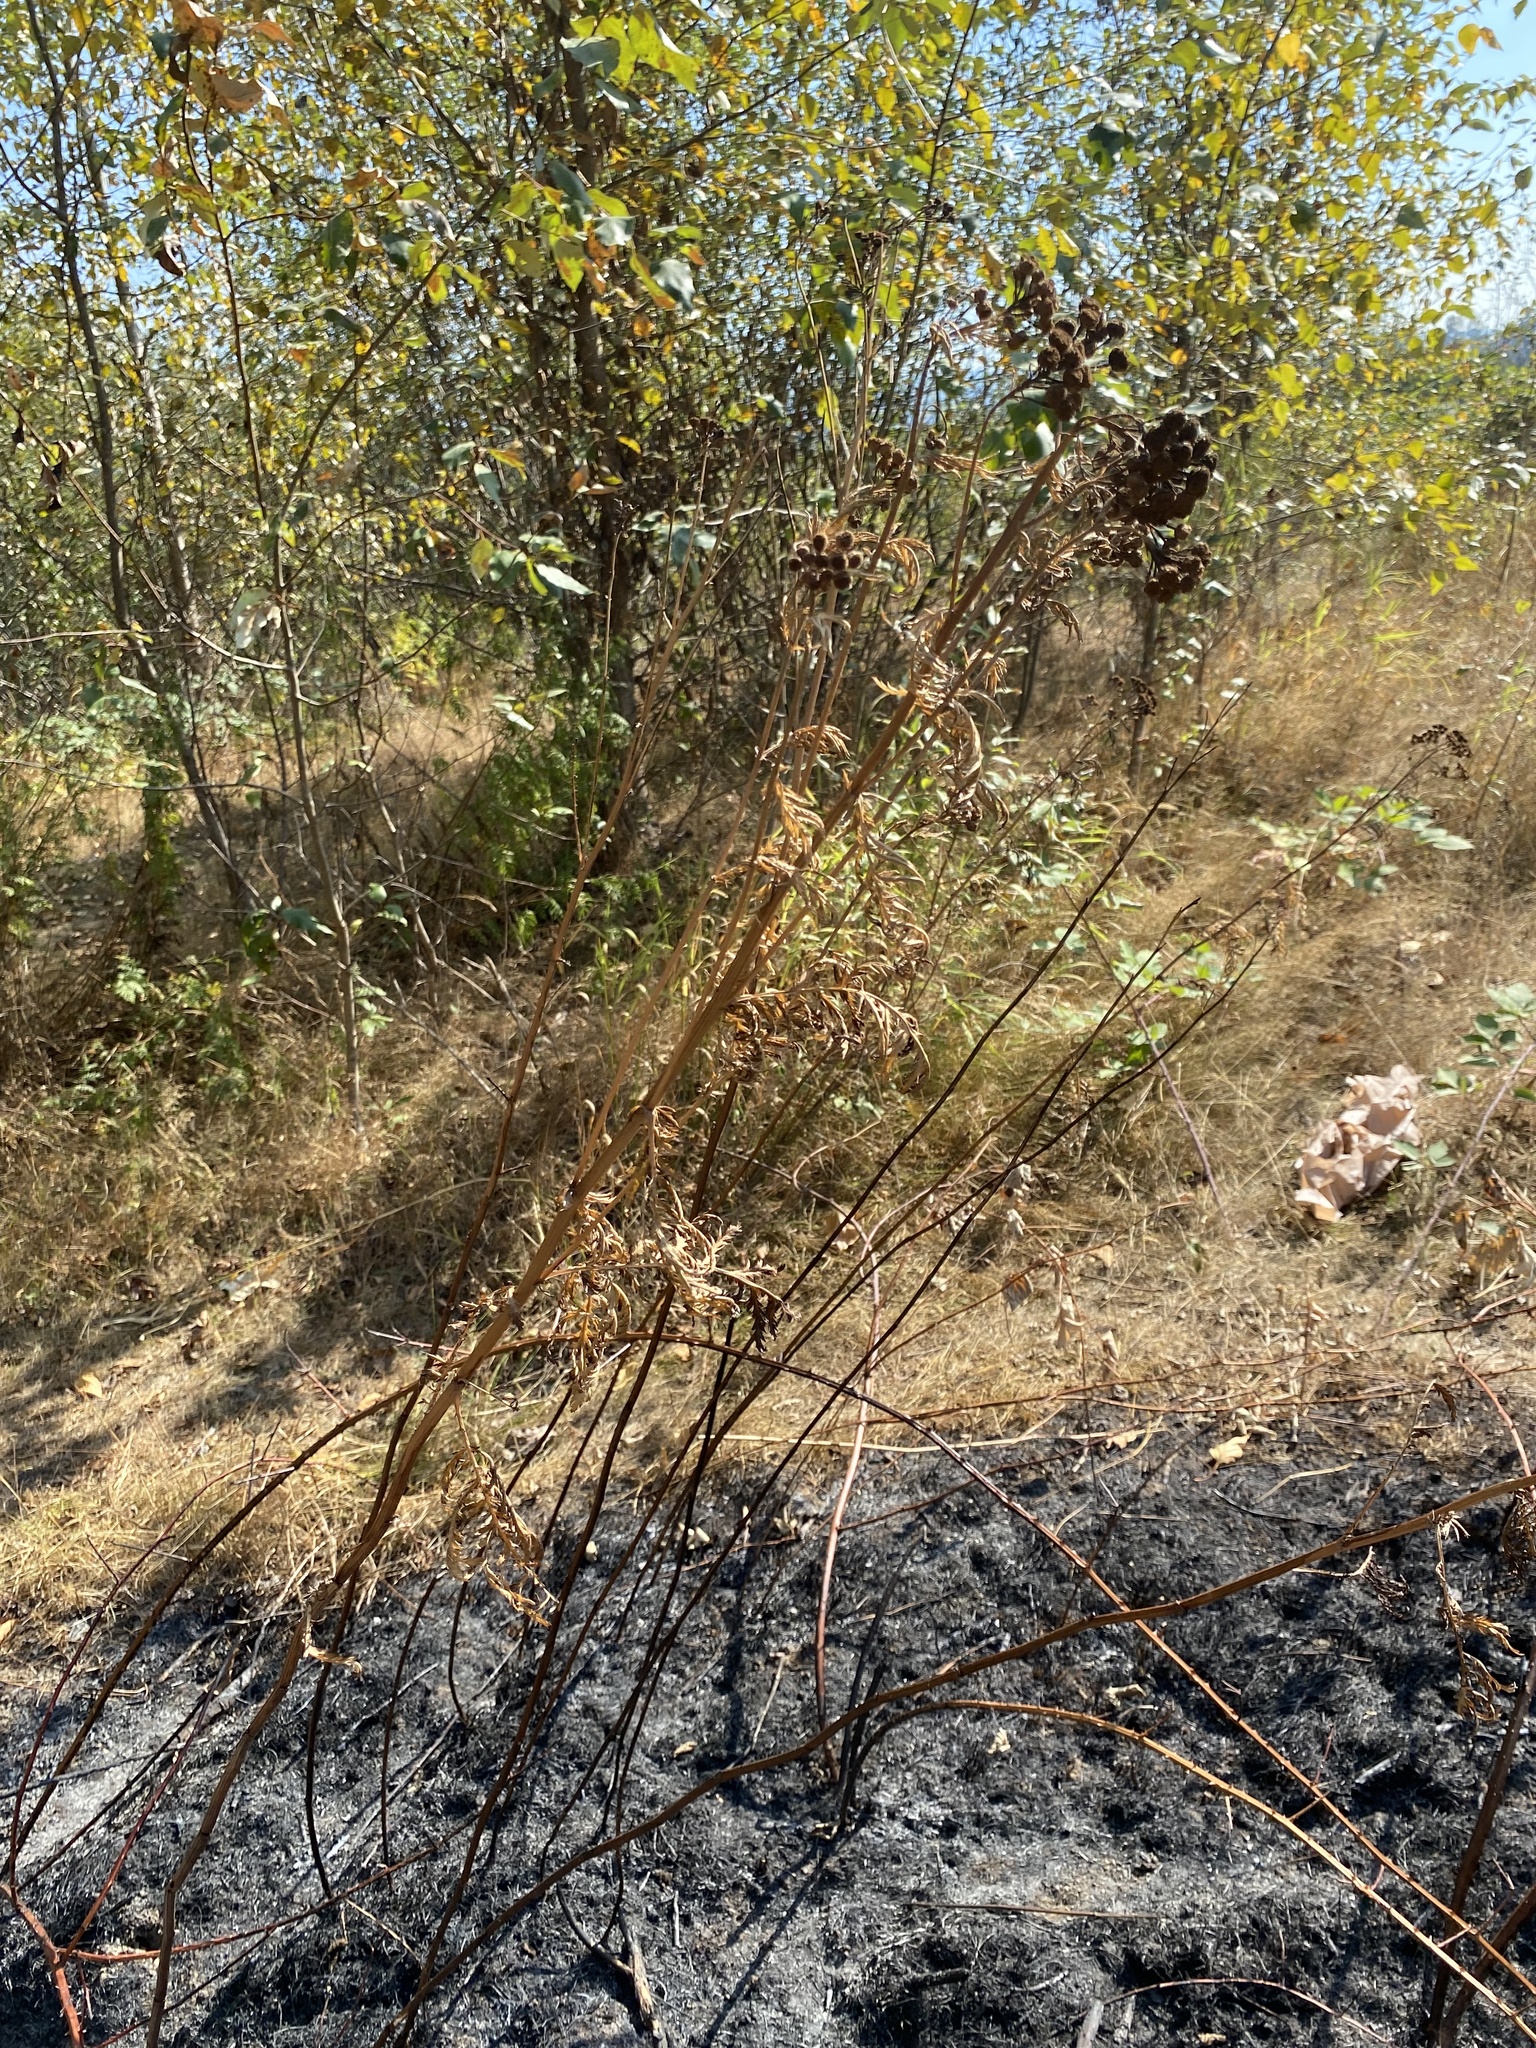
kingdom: Plantae
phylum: Tracheophyta
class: Magnoliopsida
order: Asterales
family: Asteraceae
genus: Tanacetum
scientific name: Tanacetum vulgare
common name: Common tansy
